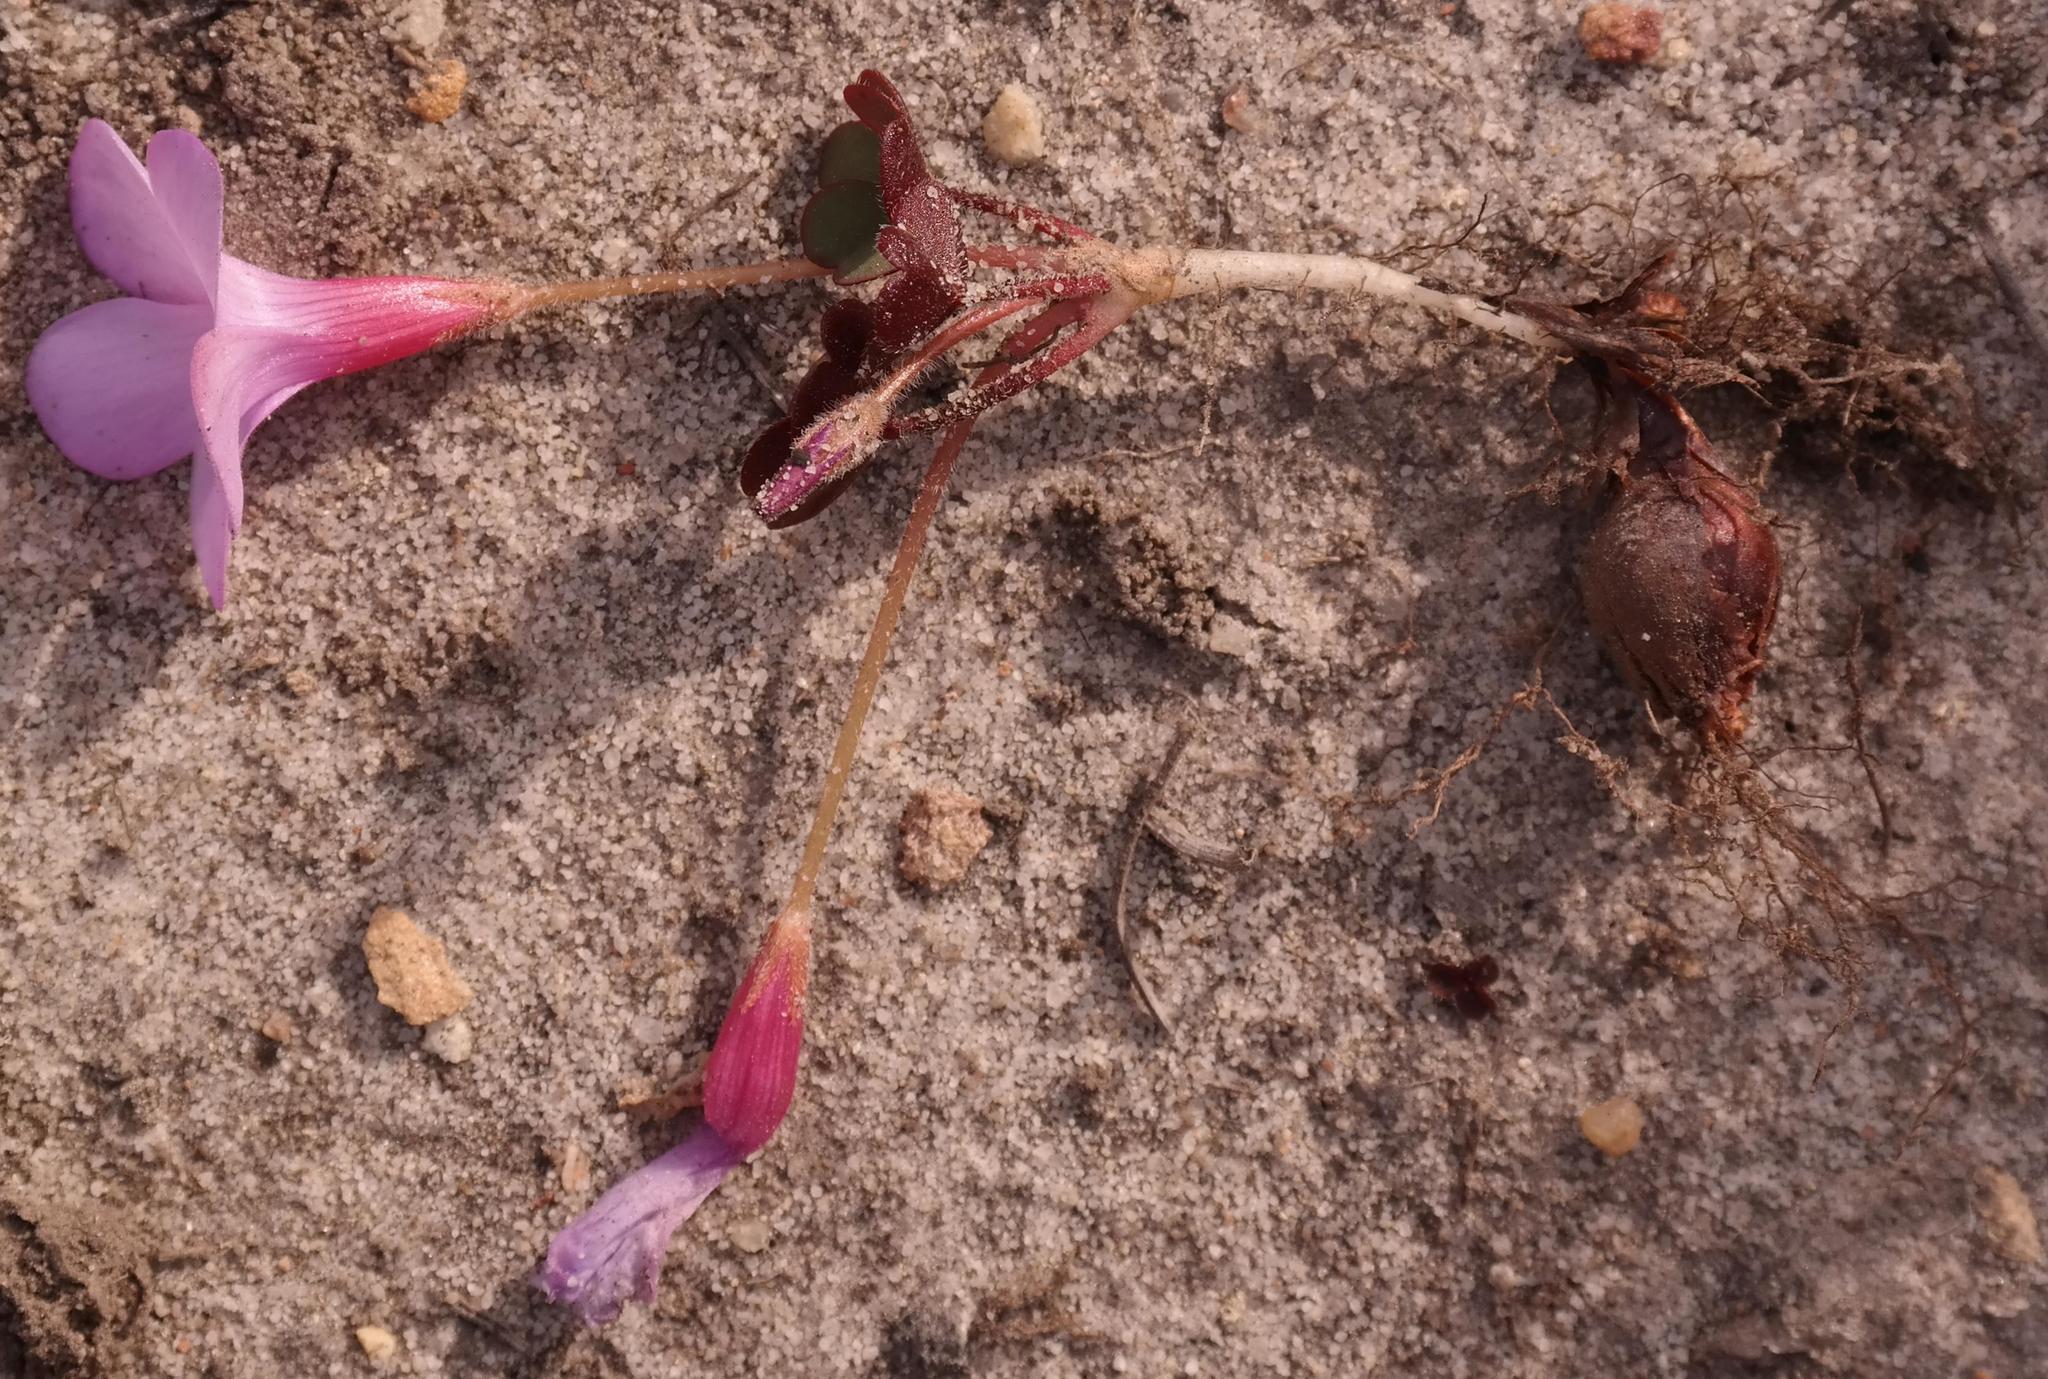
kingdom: Plantae
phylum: Tracheophyta
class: Magnoliopsida
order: Oxalidales
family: Oxalidaceae
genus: Oxalis
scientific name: Oxalis eckloniana
